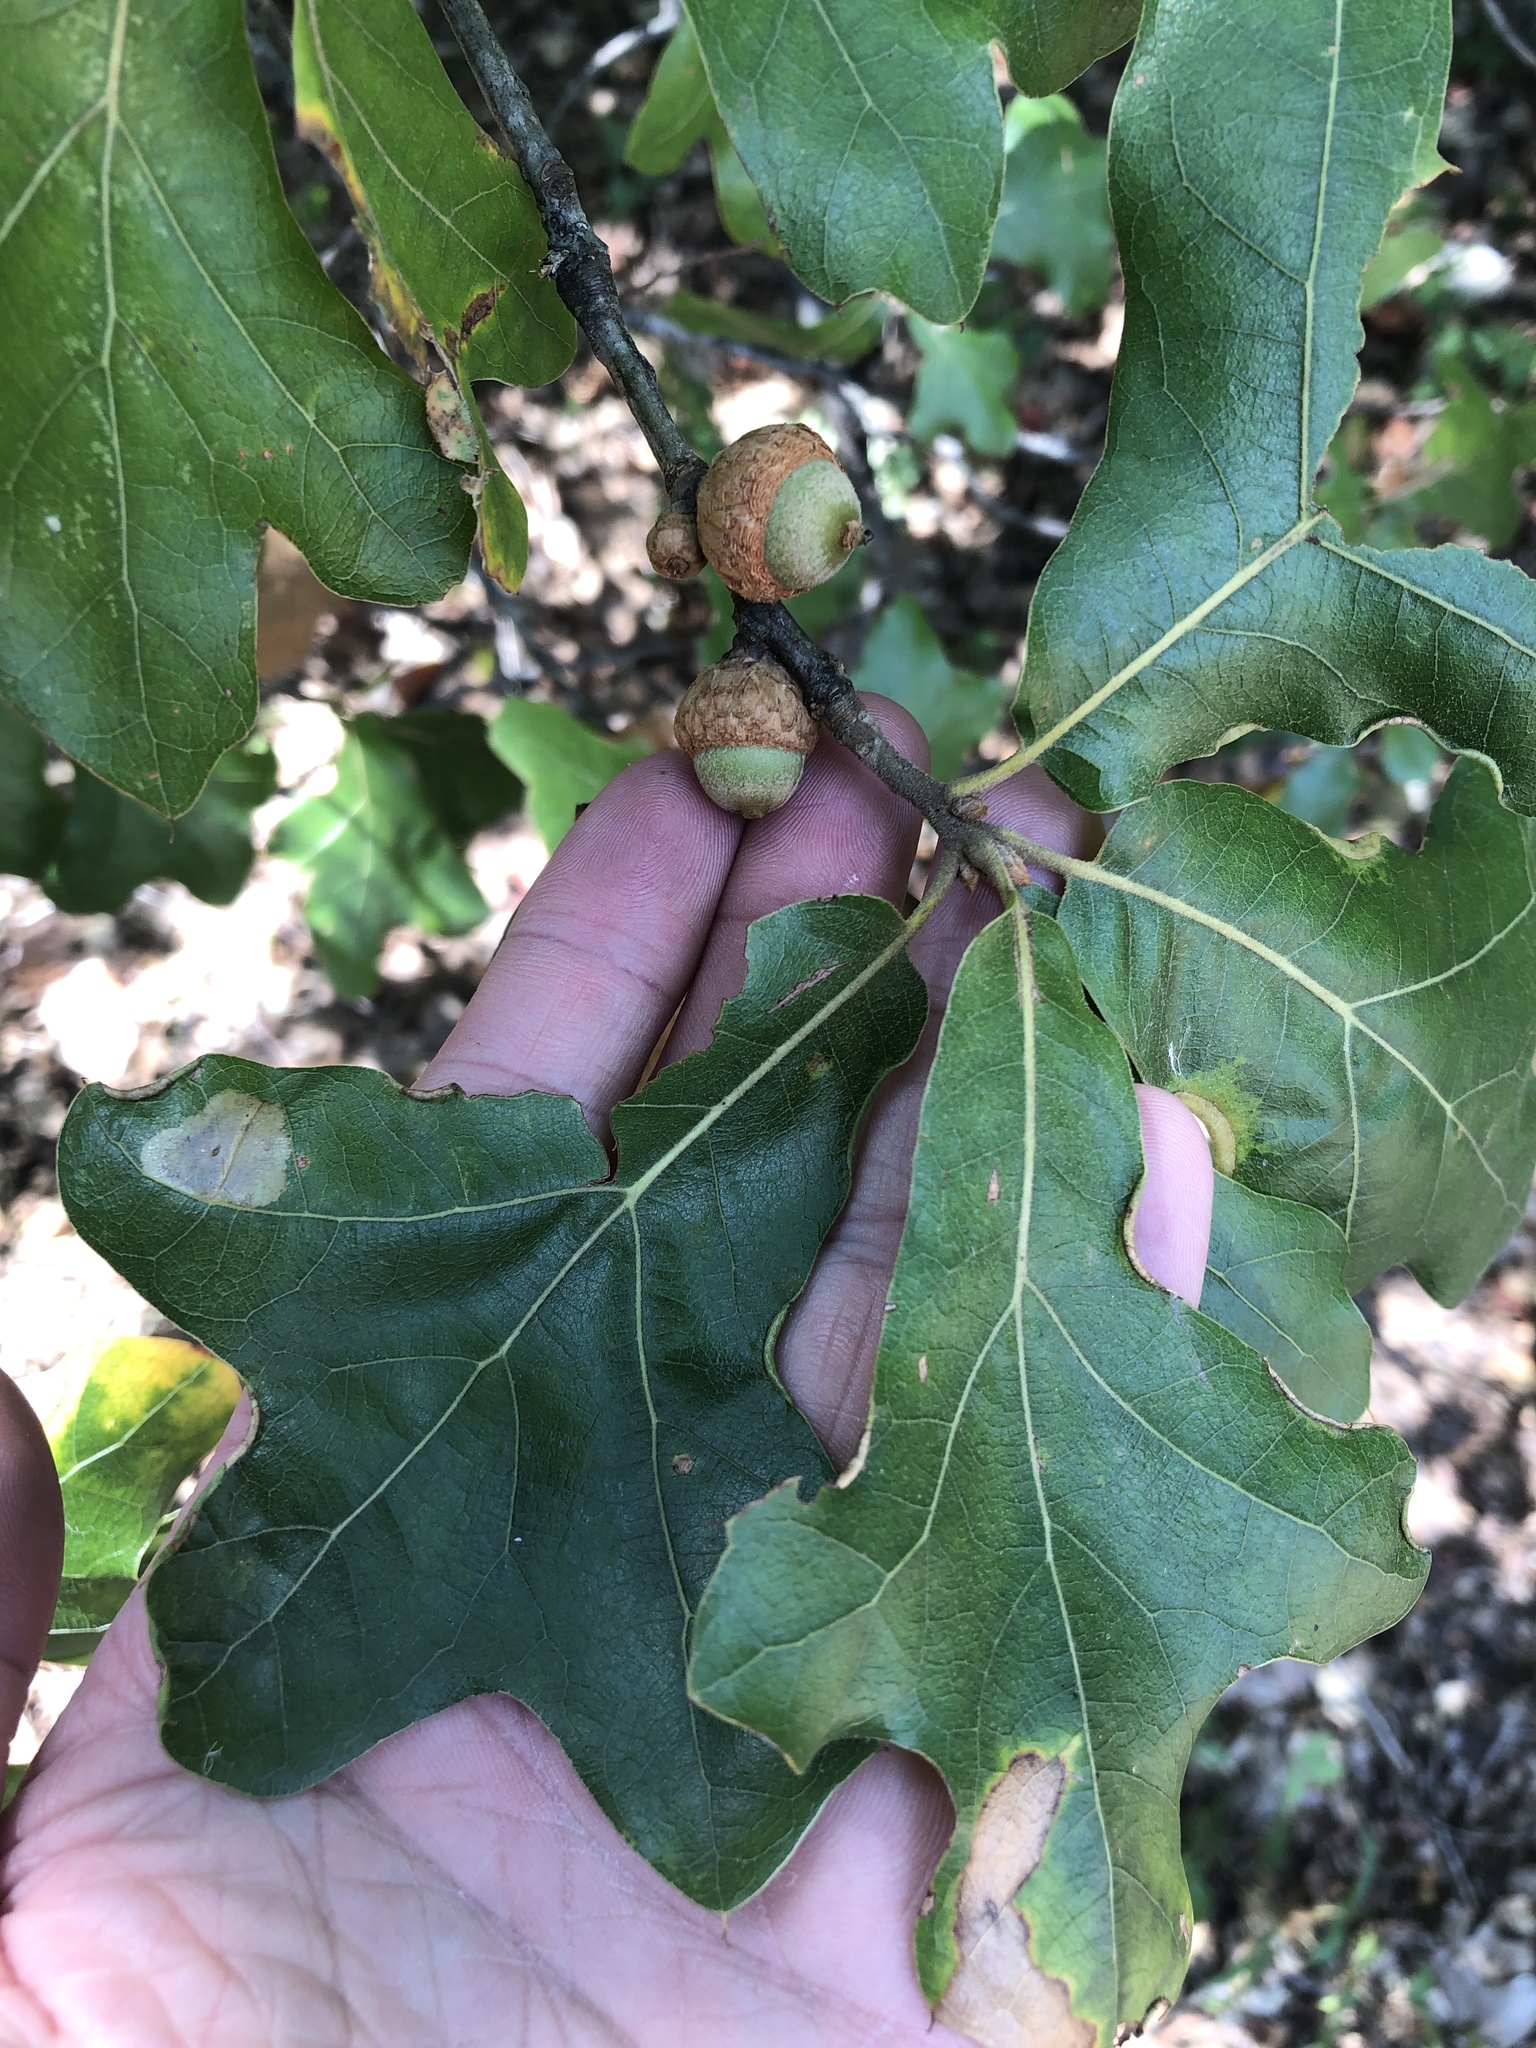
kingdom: Plantae
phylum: Tracheophyta
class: Magnoliopsida
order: Fagales
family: Fagaceae
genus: Quercus
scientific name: Quercus marilandica
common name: Blackjack oak
